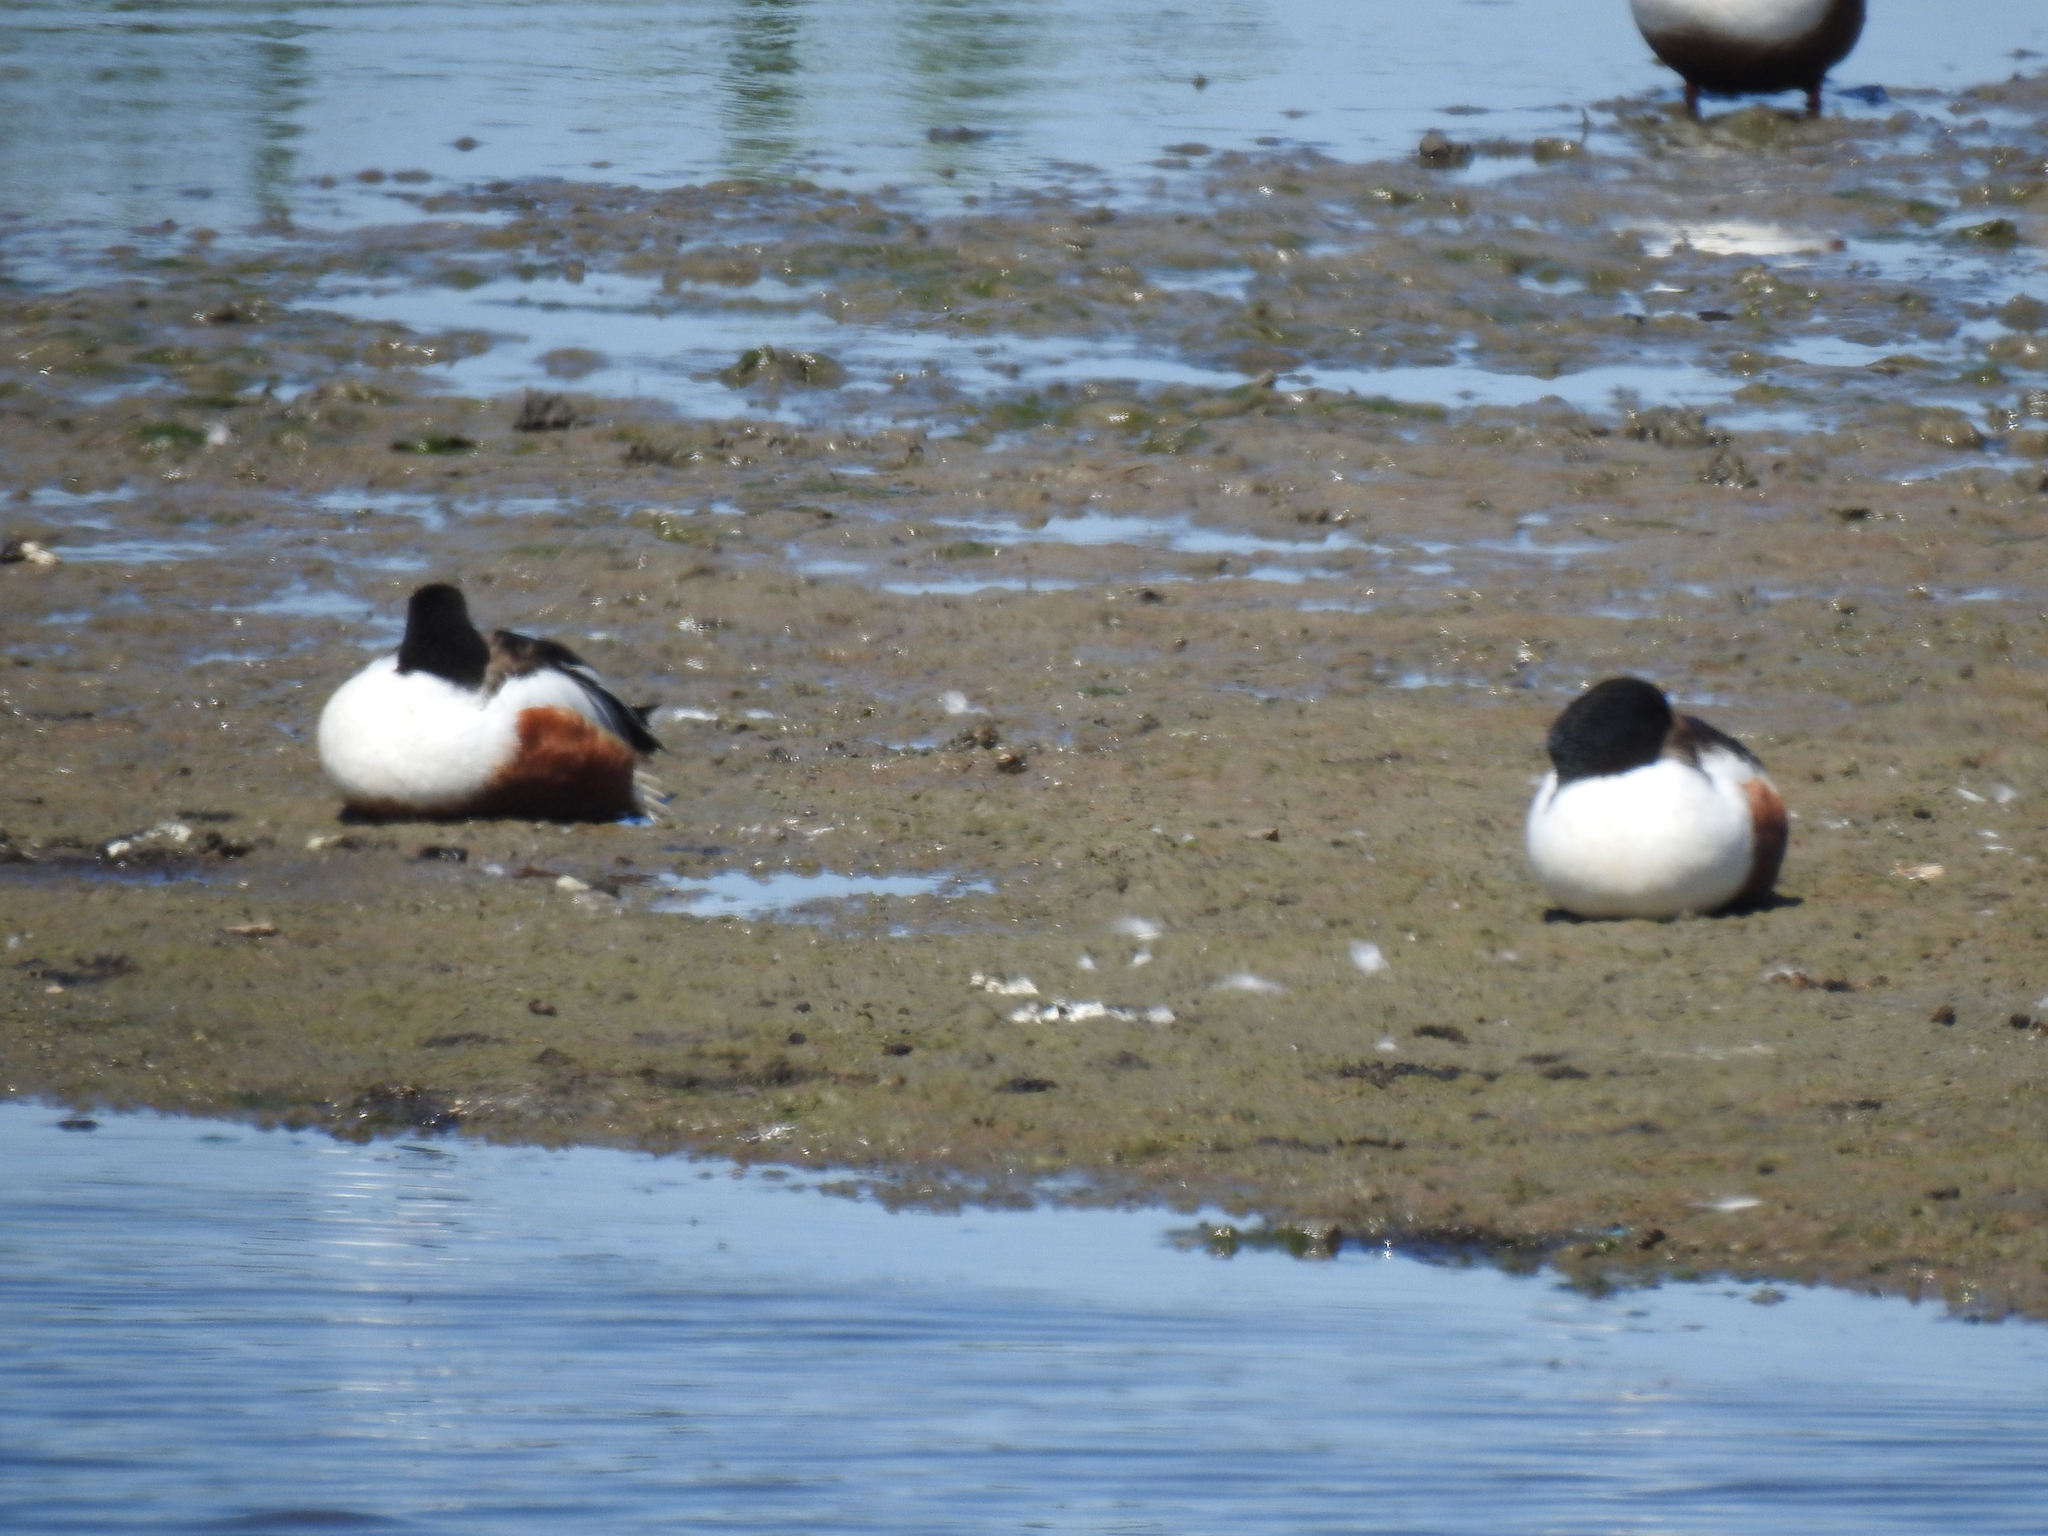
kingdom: Animalia
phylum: Chordata
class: Aves
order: Anseriformes
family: Anatidae
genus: Spatula
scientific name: Spatula clypeata
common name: Northern shoveler
